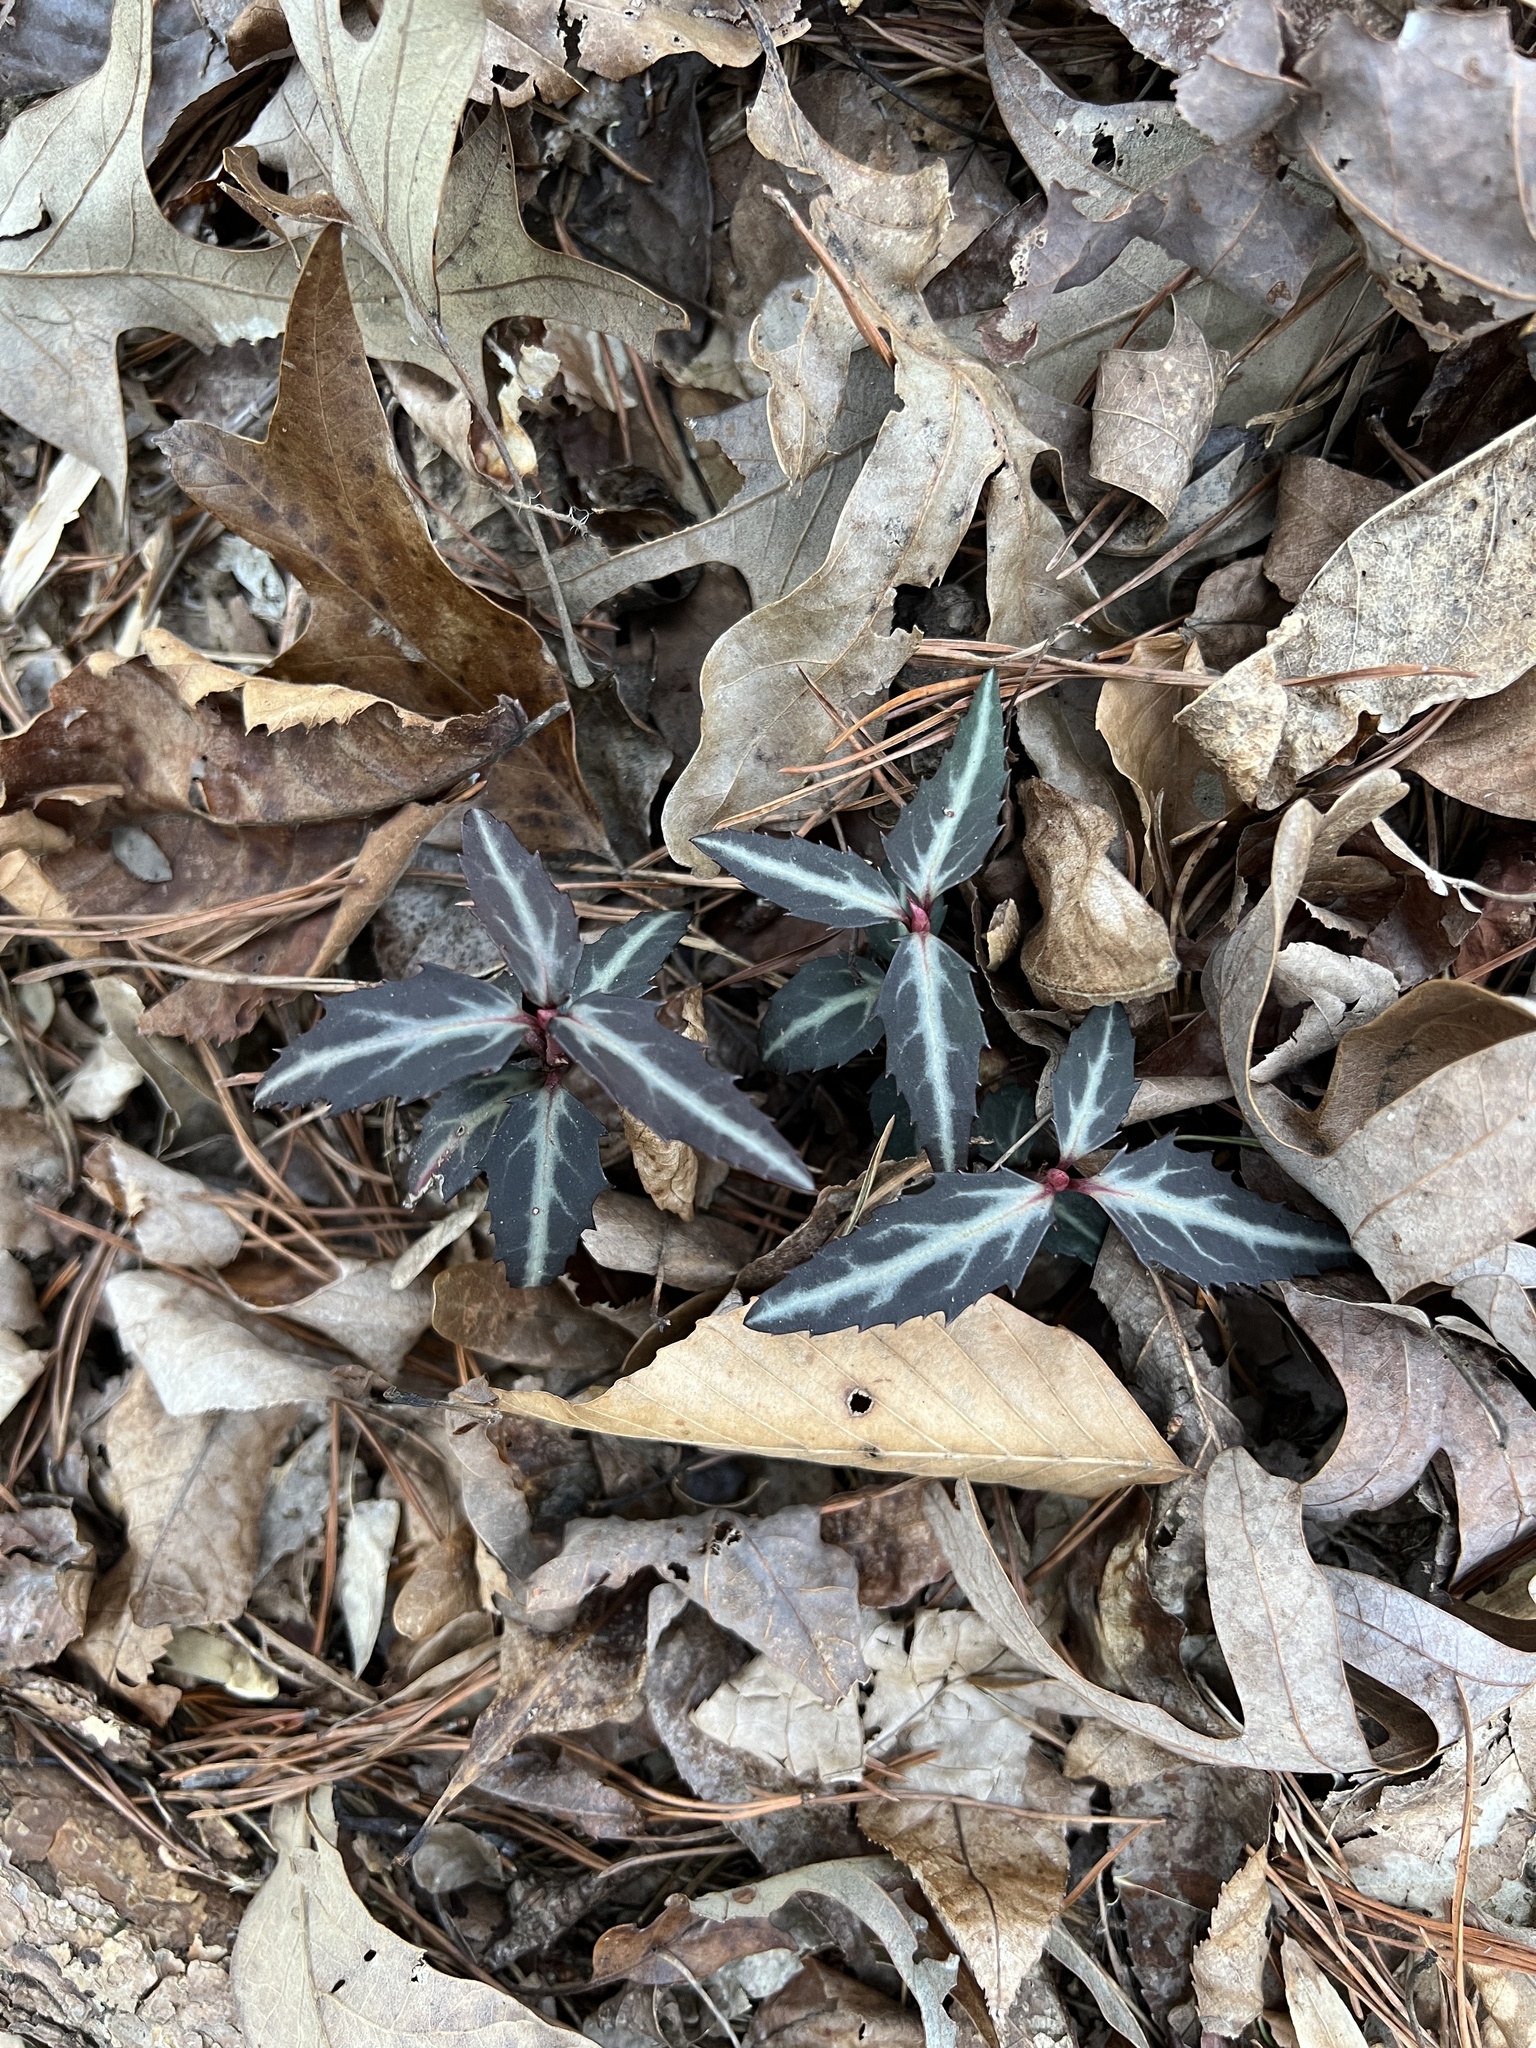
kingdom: Plantae
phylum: Tracheophyta
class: Magnoliopsida
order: Ericales
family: Ericaceae
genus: Chimaphila
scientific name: Chimaphila maculata
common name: Spotted pipsissewa
